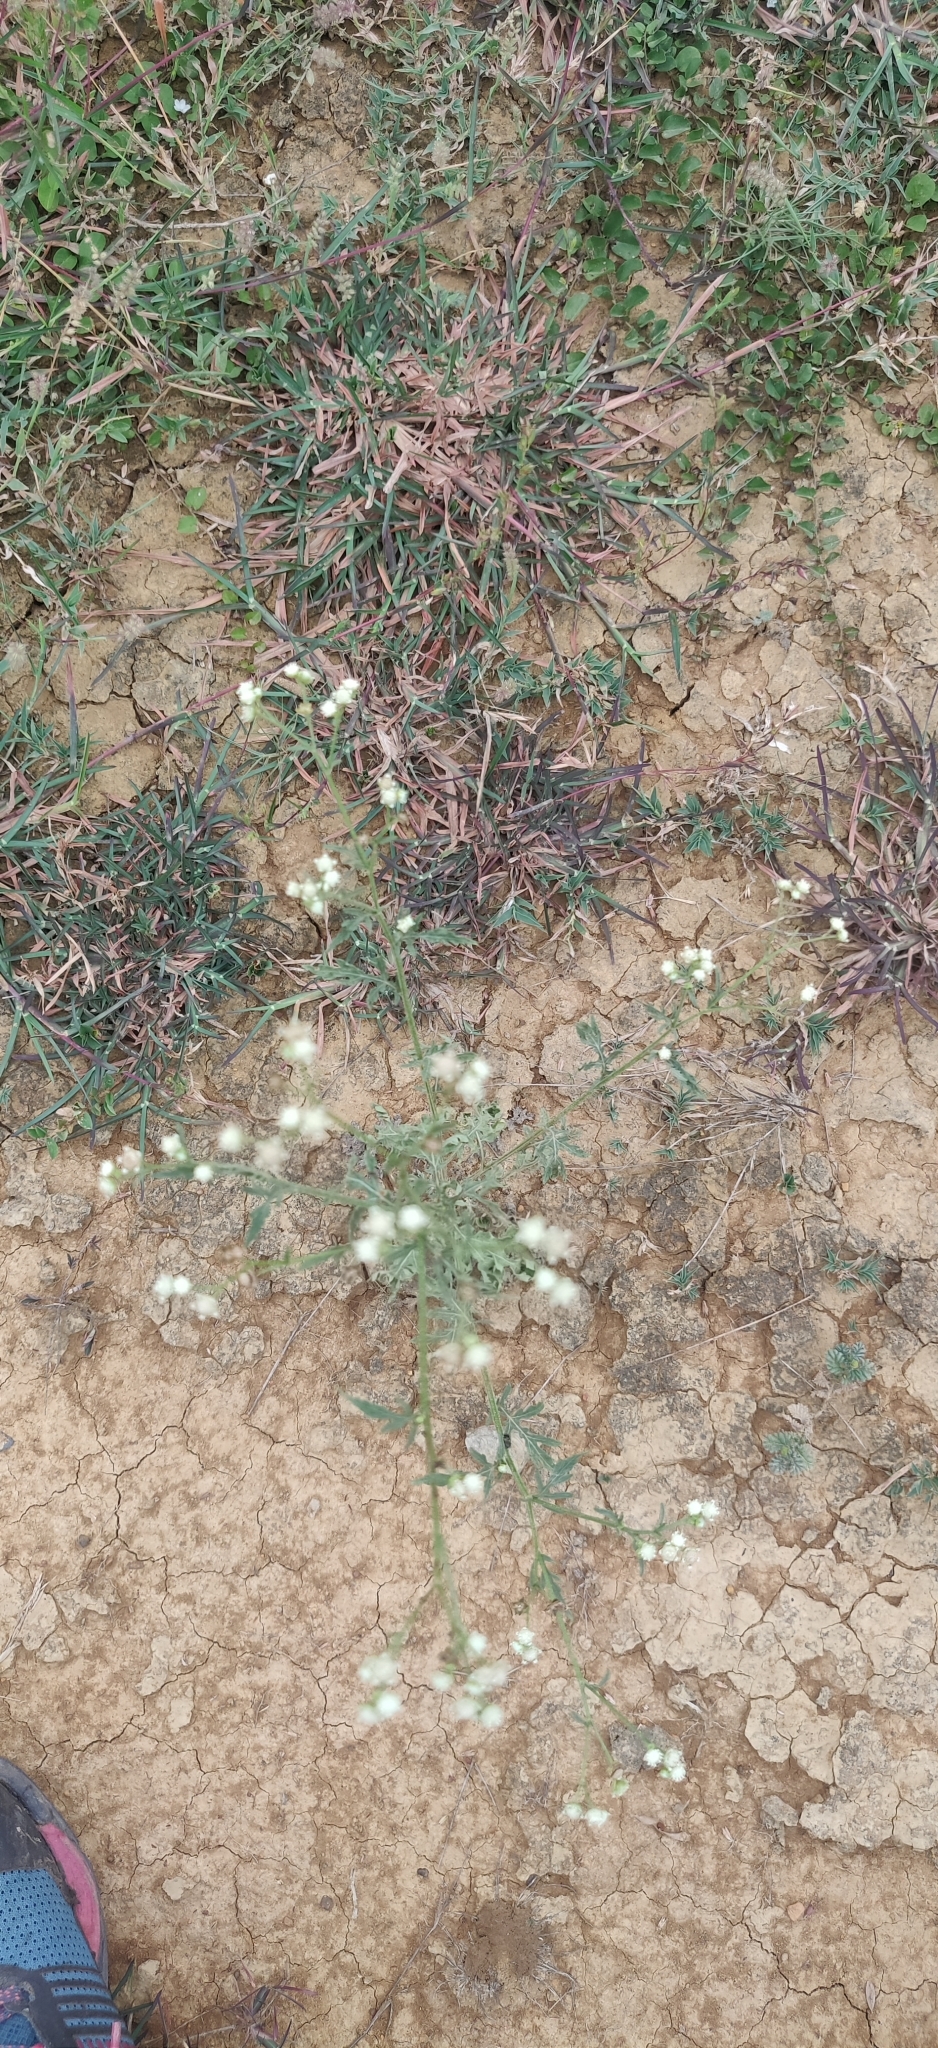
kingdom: Plantae
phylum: Tracheophyta
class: Magnoliopsida
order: Asterales
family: Asteraceae
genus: Parthenium
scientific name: Parthenium hysterophorus
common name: Santa maria feverfew
